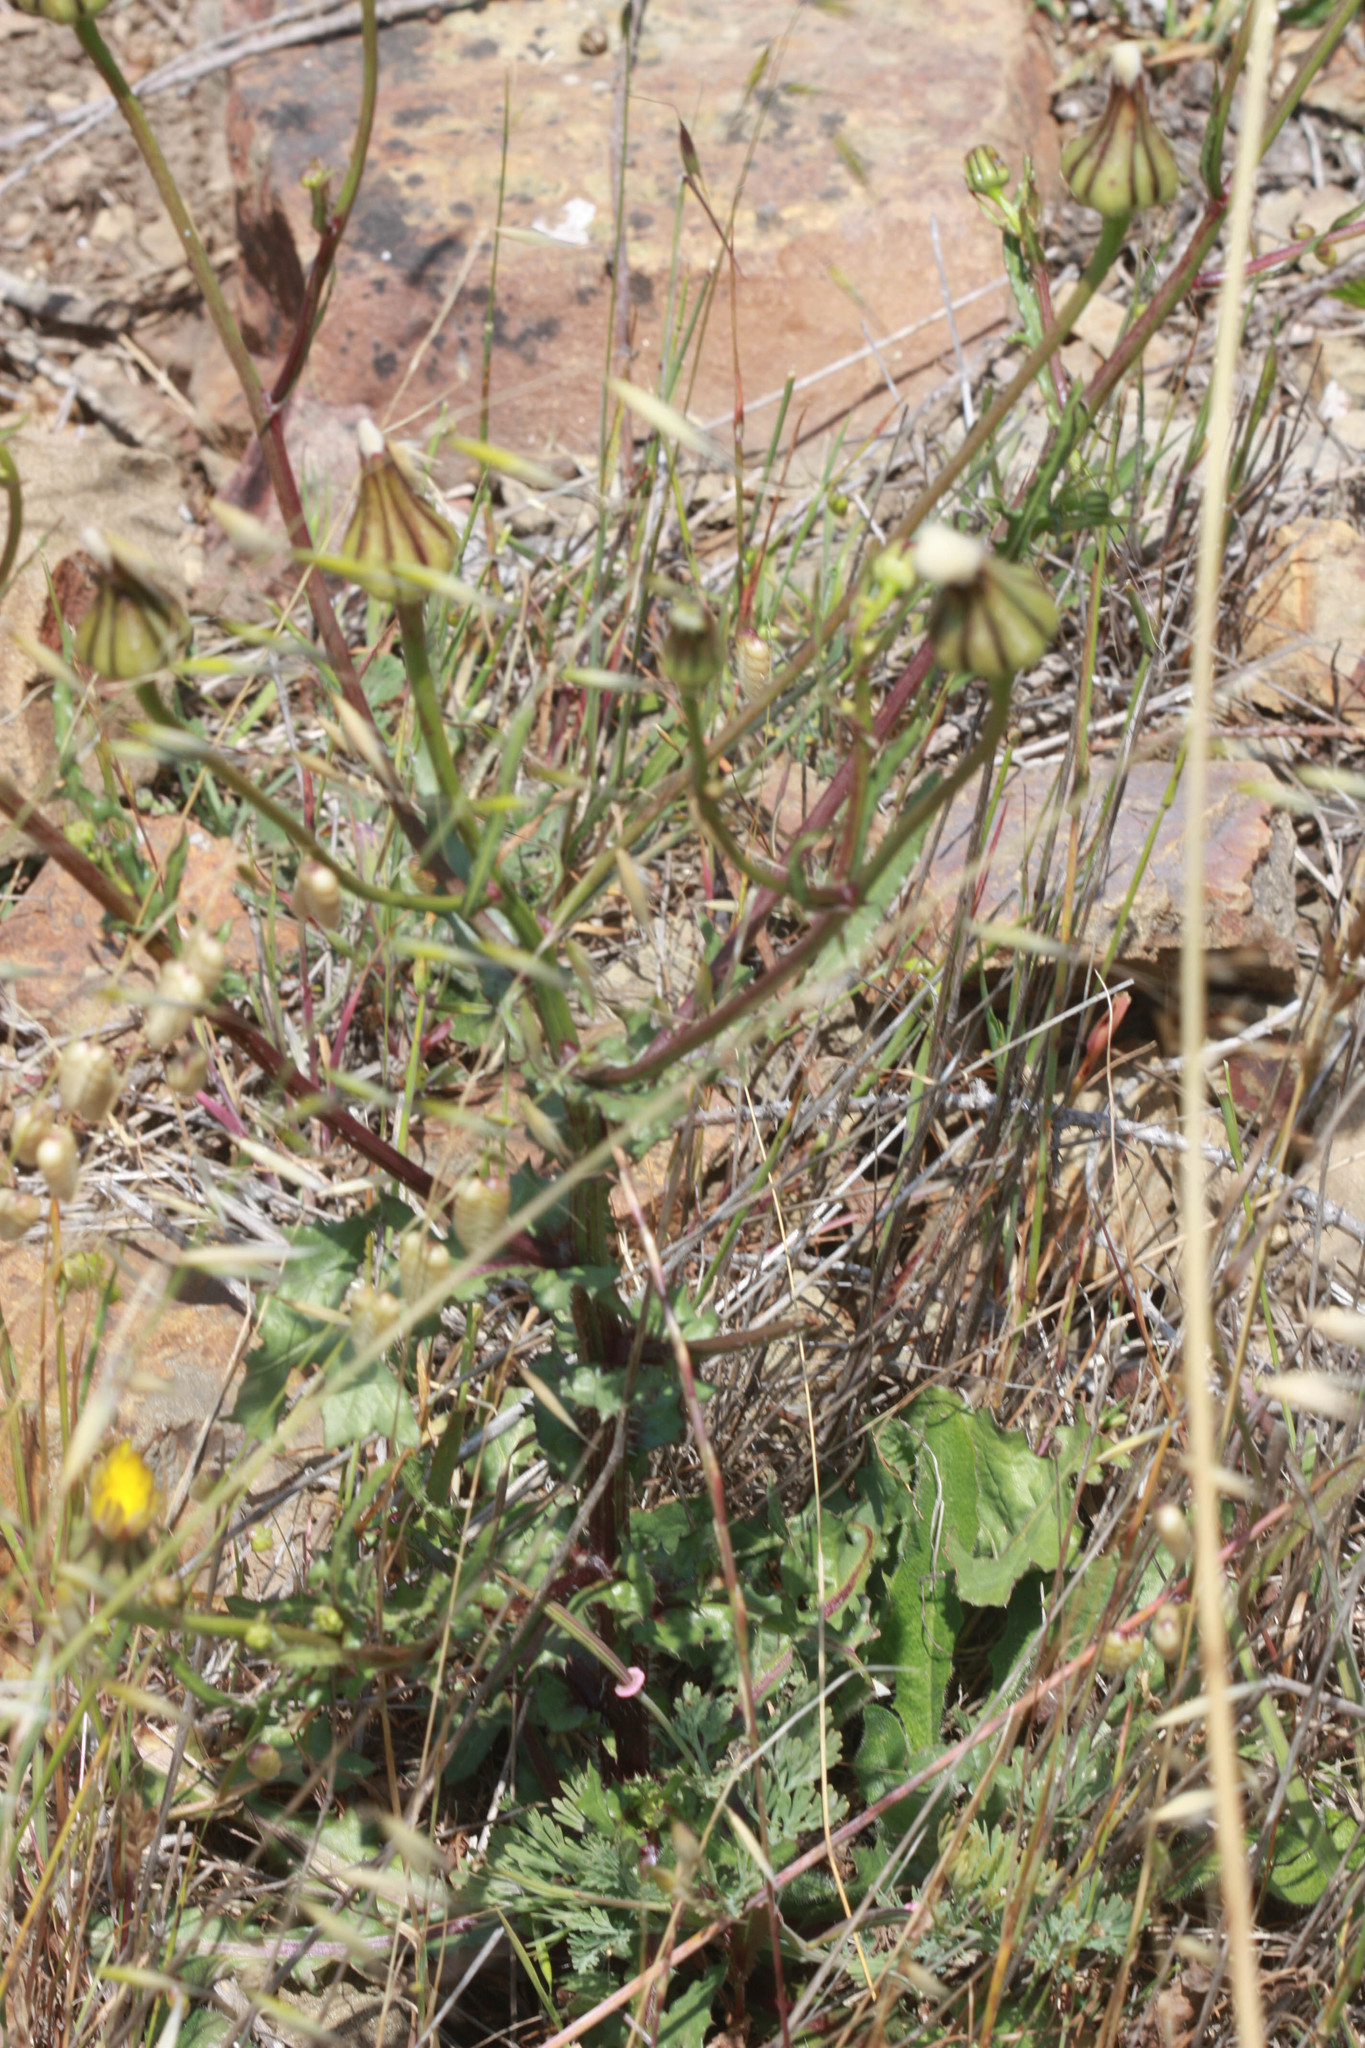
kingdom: Plantae
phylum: Tracheophyta
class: Magnoliopsida
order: Asterales
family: Asteraceae
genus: Urospermum
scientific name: Urospermum picroides
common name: False hawkbit
